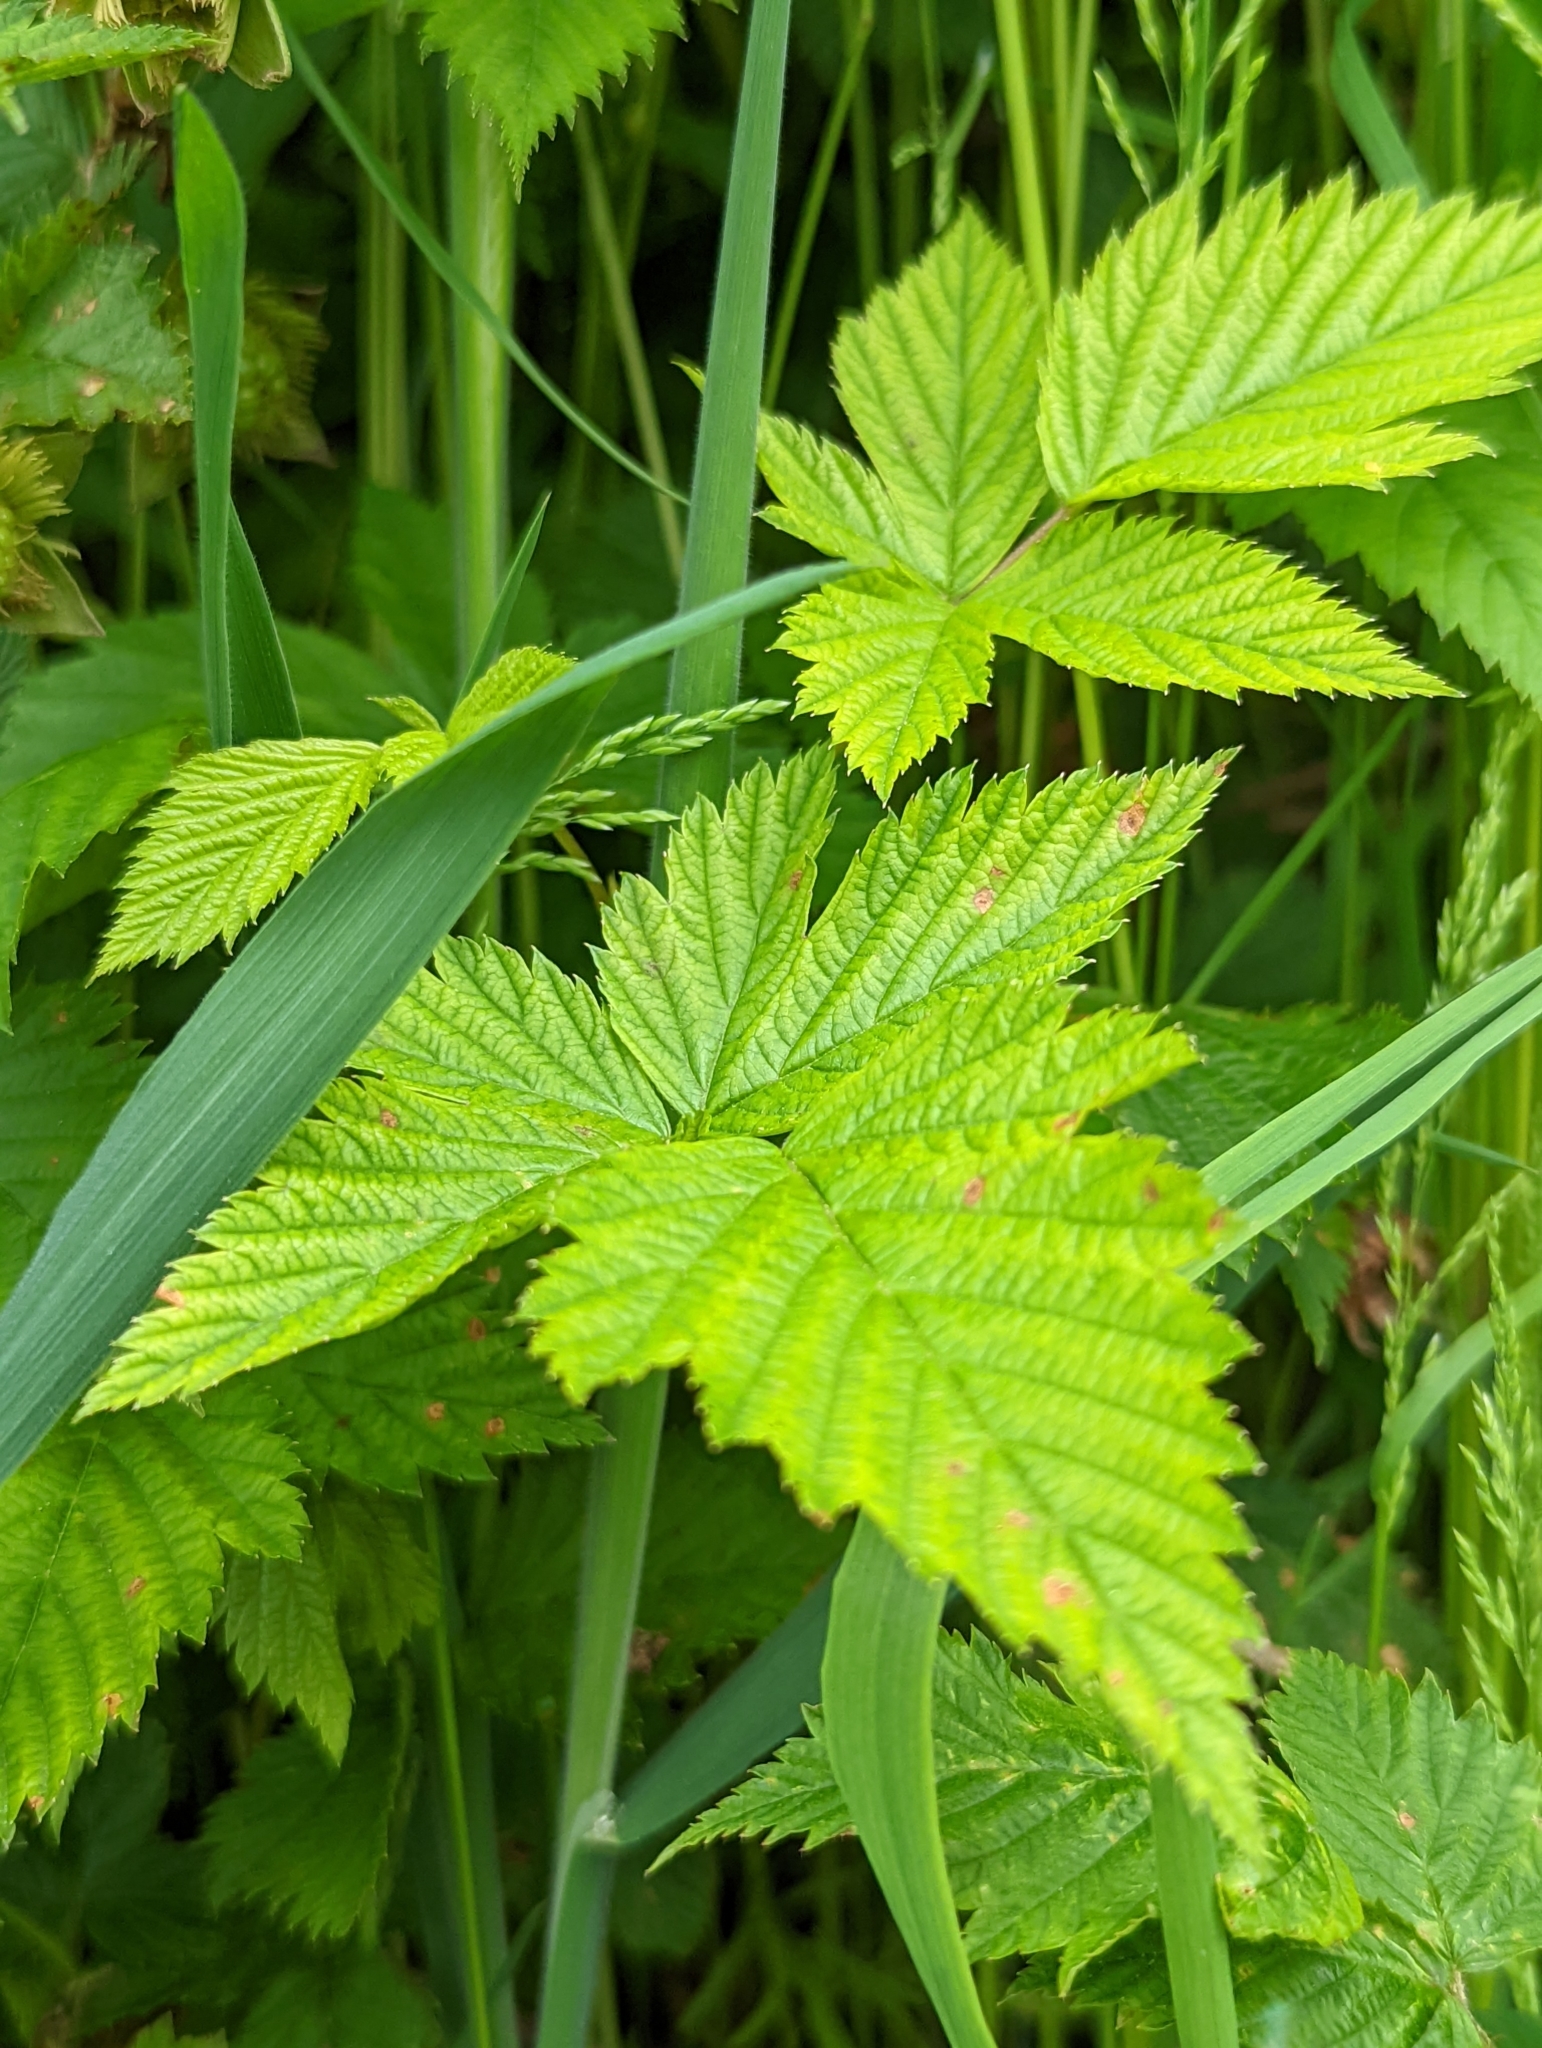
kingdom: Plantae
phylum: Tracheophyta
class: Magnoliopsida
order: Rosales
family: Rosaceae
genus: Rubus
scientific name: Rubus spectabilis
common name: Salmonberry
